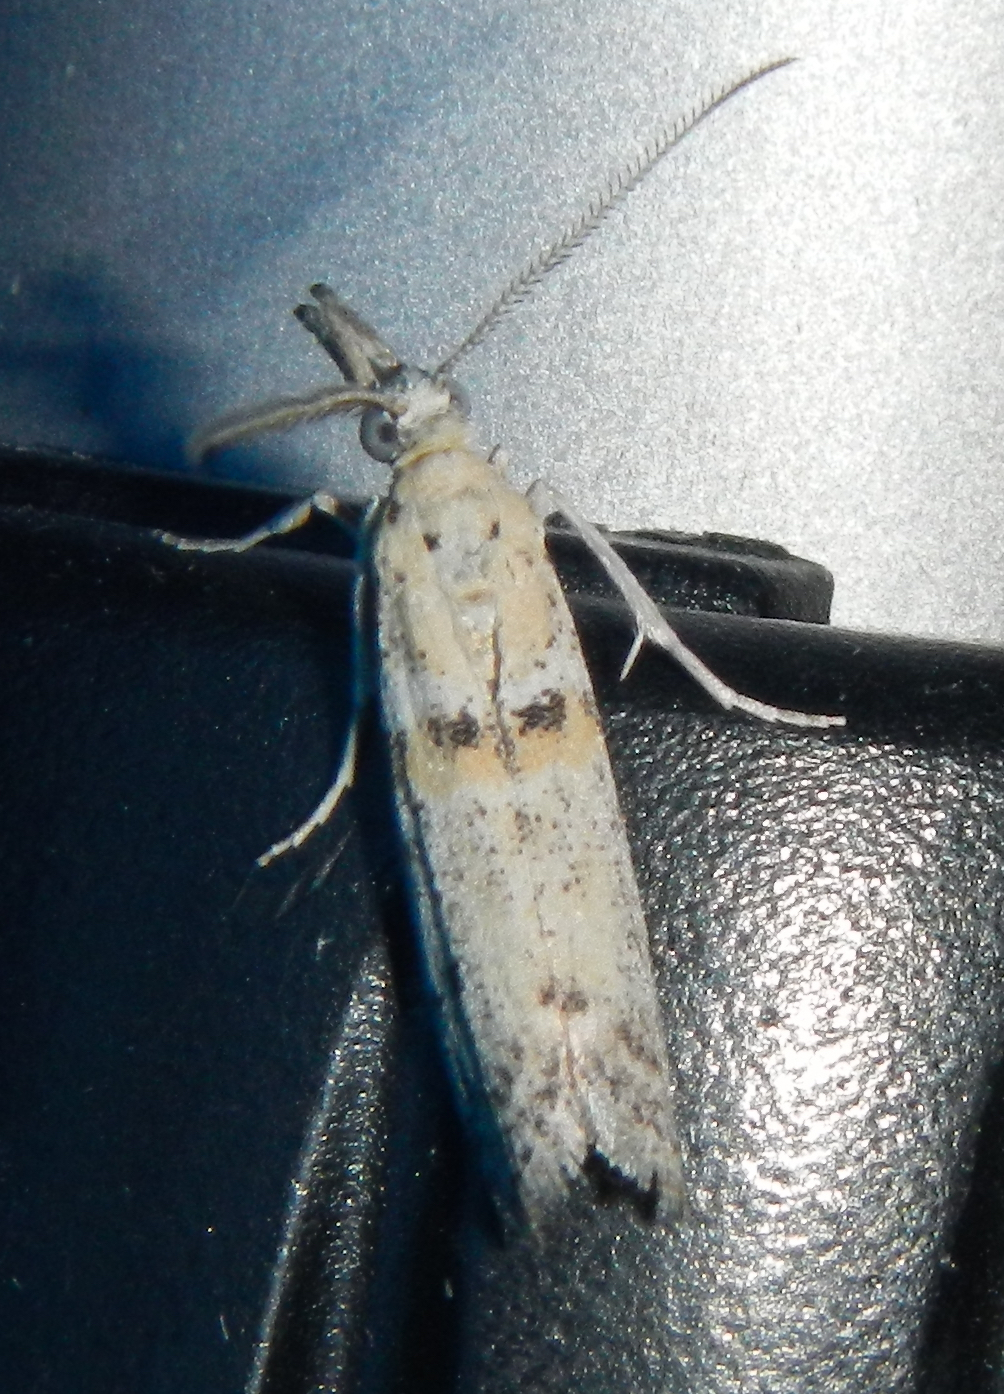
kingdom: Animalia
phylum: Arthropoda
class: Insecta
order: Lepidoptera
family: Pyralidae
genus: Eumysia
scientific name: Eumysia pallidipennella
